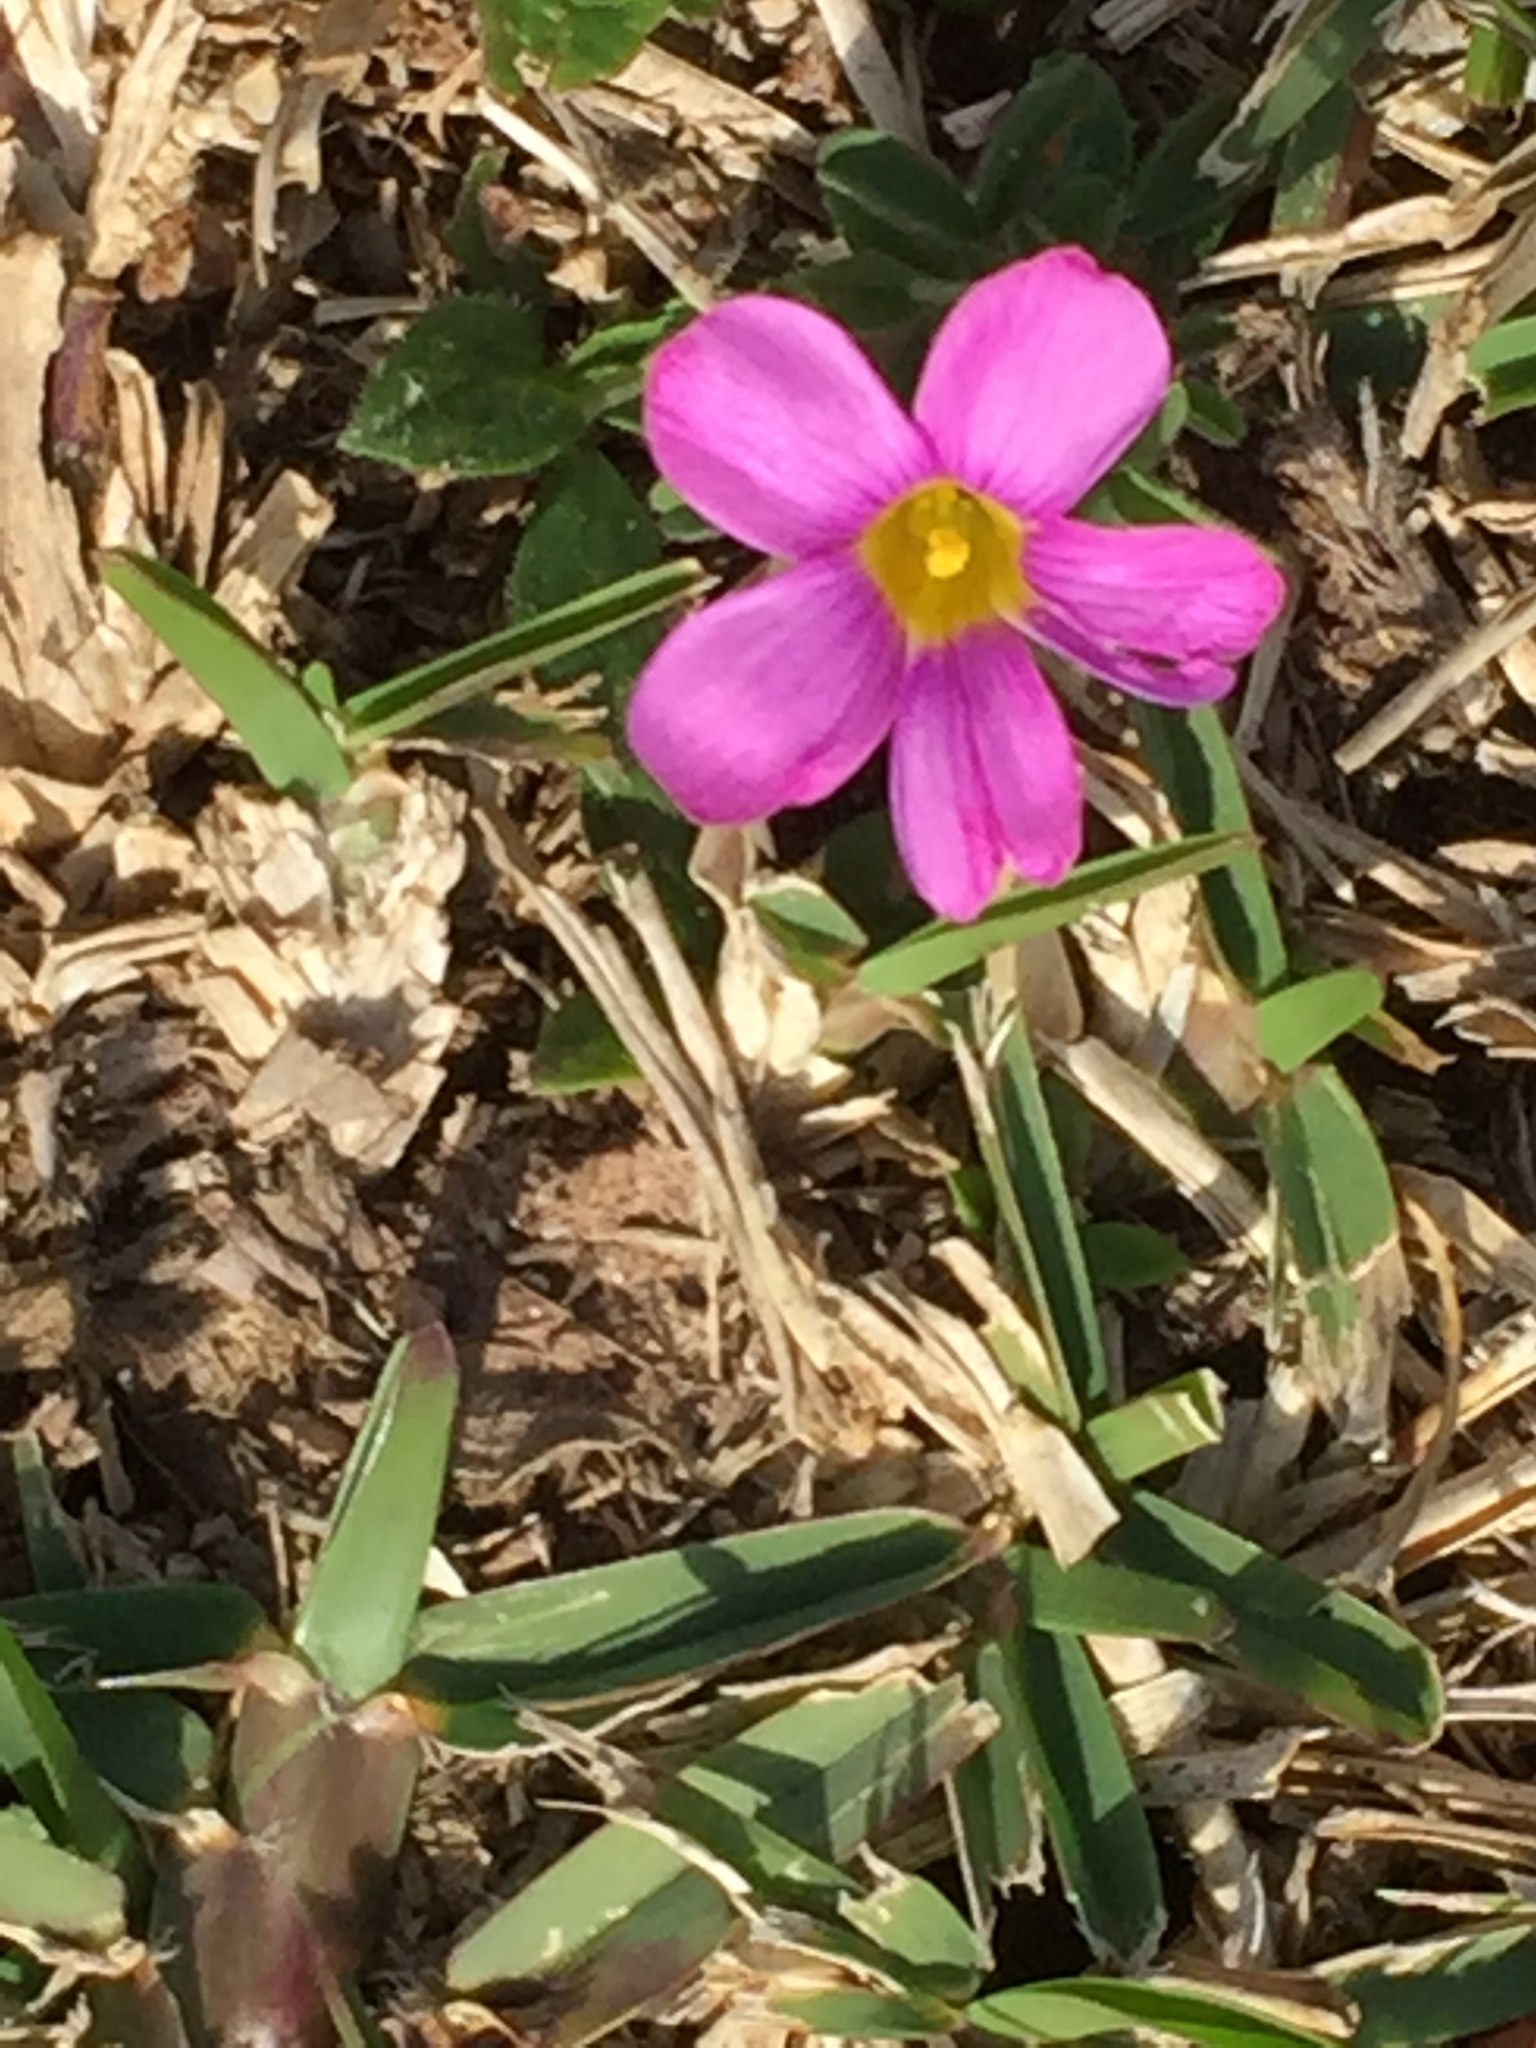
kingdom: Plantae
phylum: Tracheophyta
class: Magnoliopsida
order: Oxalidales
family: Oxalidaceae
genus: Oxalis
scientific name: Oxalis ciliaris
